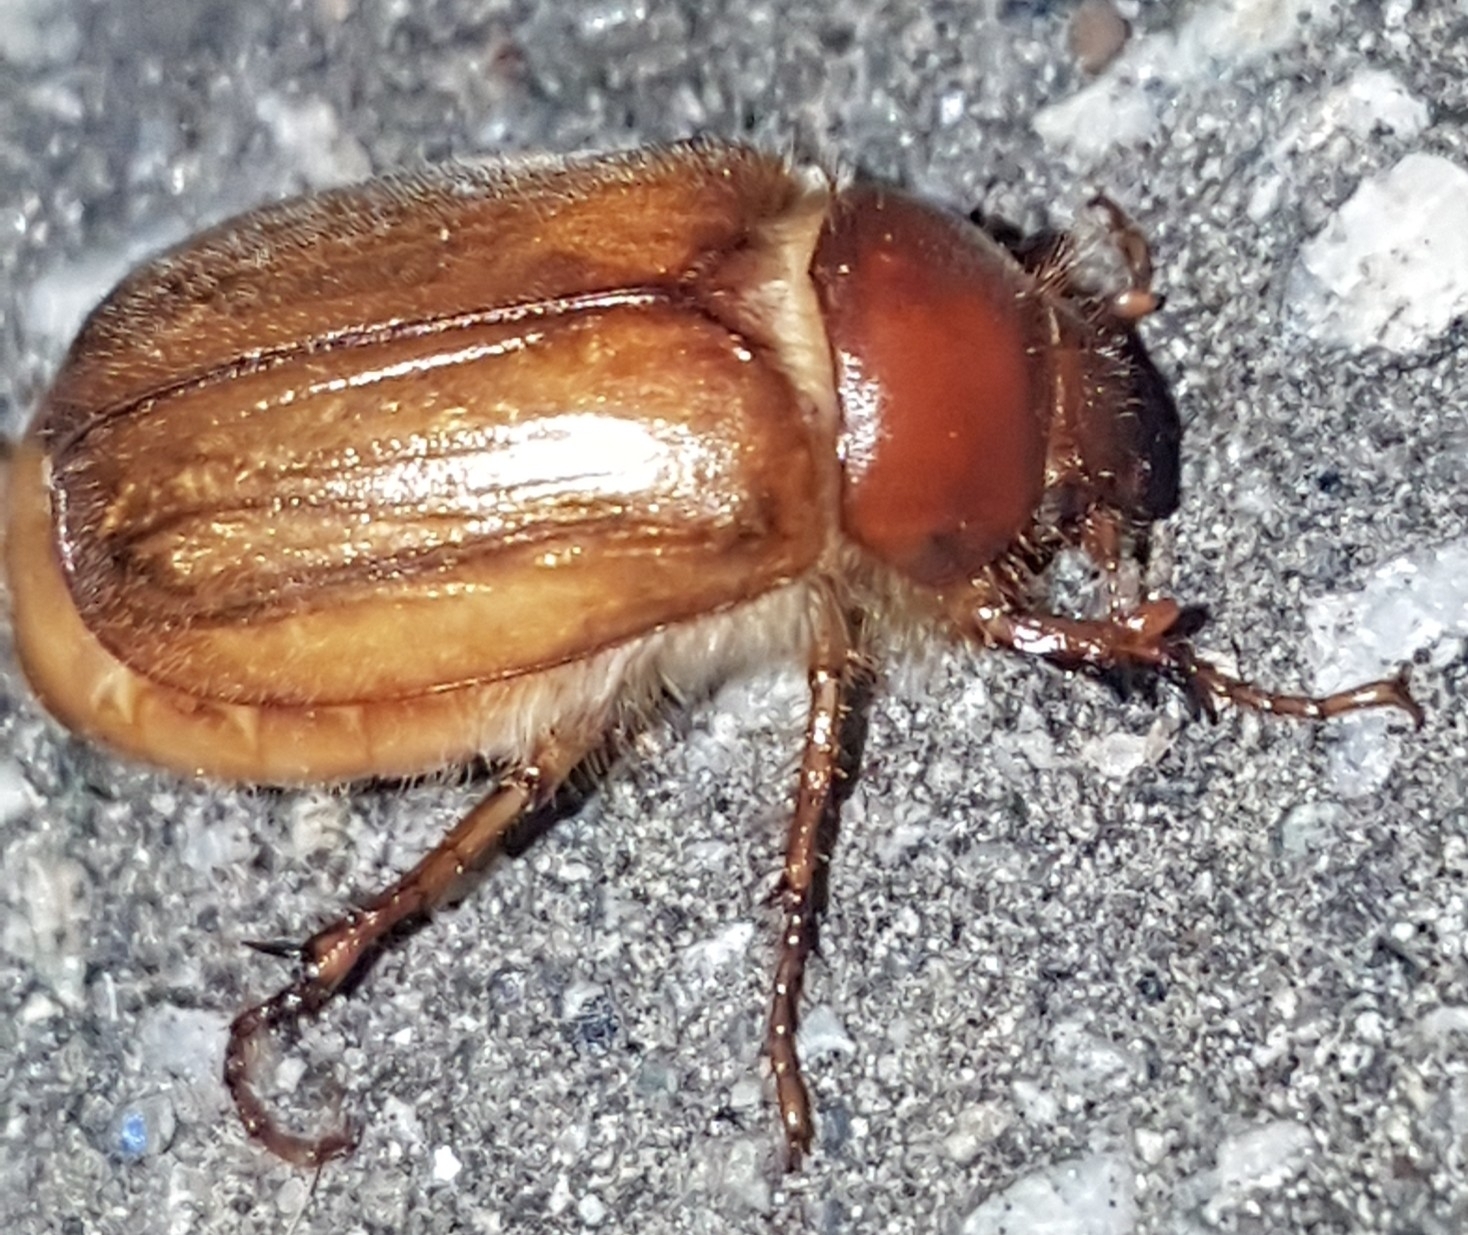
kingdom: Animalia
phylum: Arthropoda
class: Insecta
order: Coleoptera
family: Scarabaeidae
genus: Amphimallon
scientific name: Amphimallon majale
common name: European chafer
